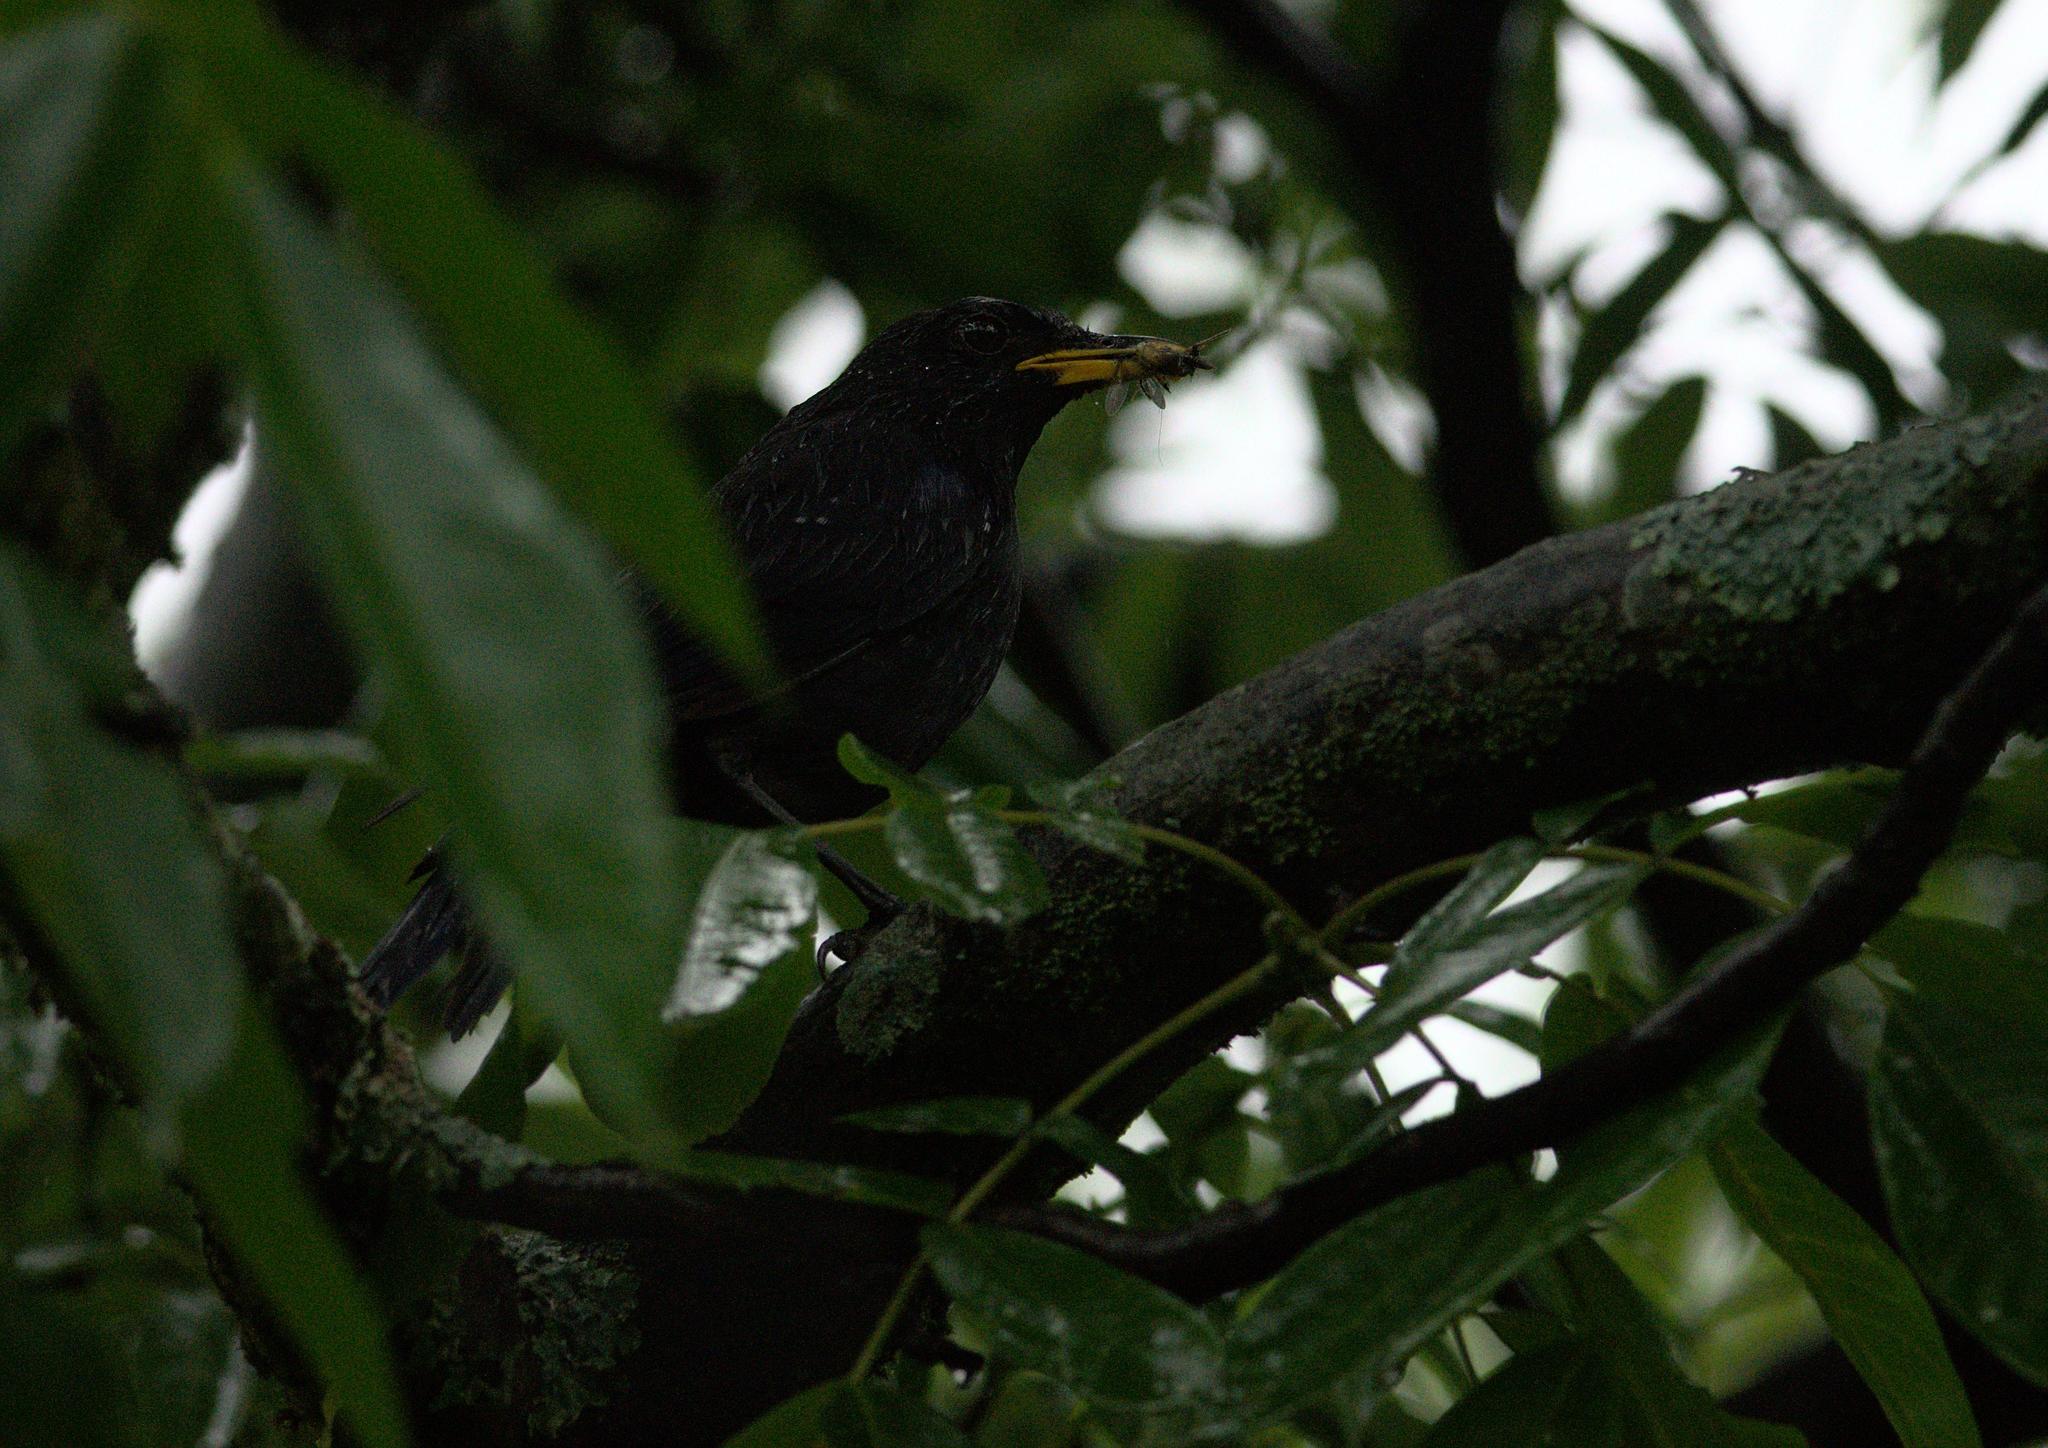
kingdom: Animalia
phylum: Chordata
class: Aves
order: Passeriformes
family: Muscicapidae
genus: Myophonus
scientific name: Myophonus caeruleus
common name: Blue whistling-thrush
